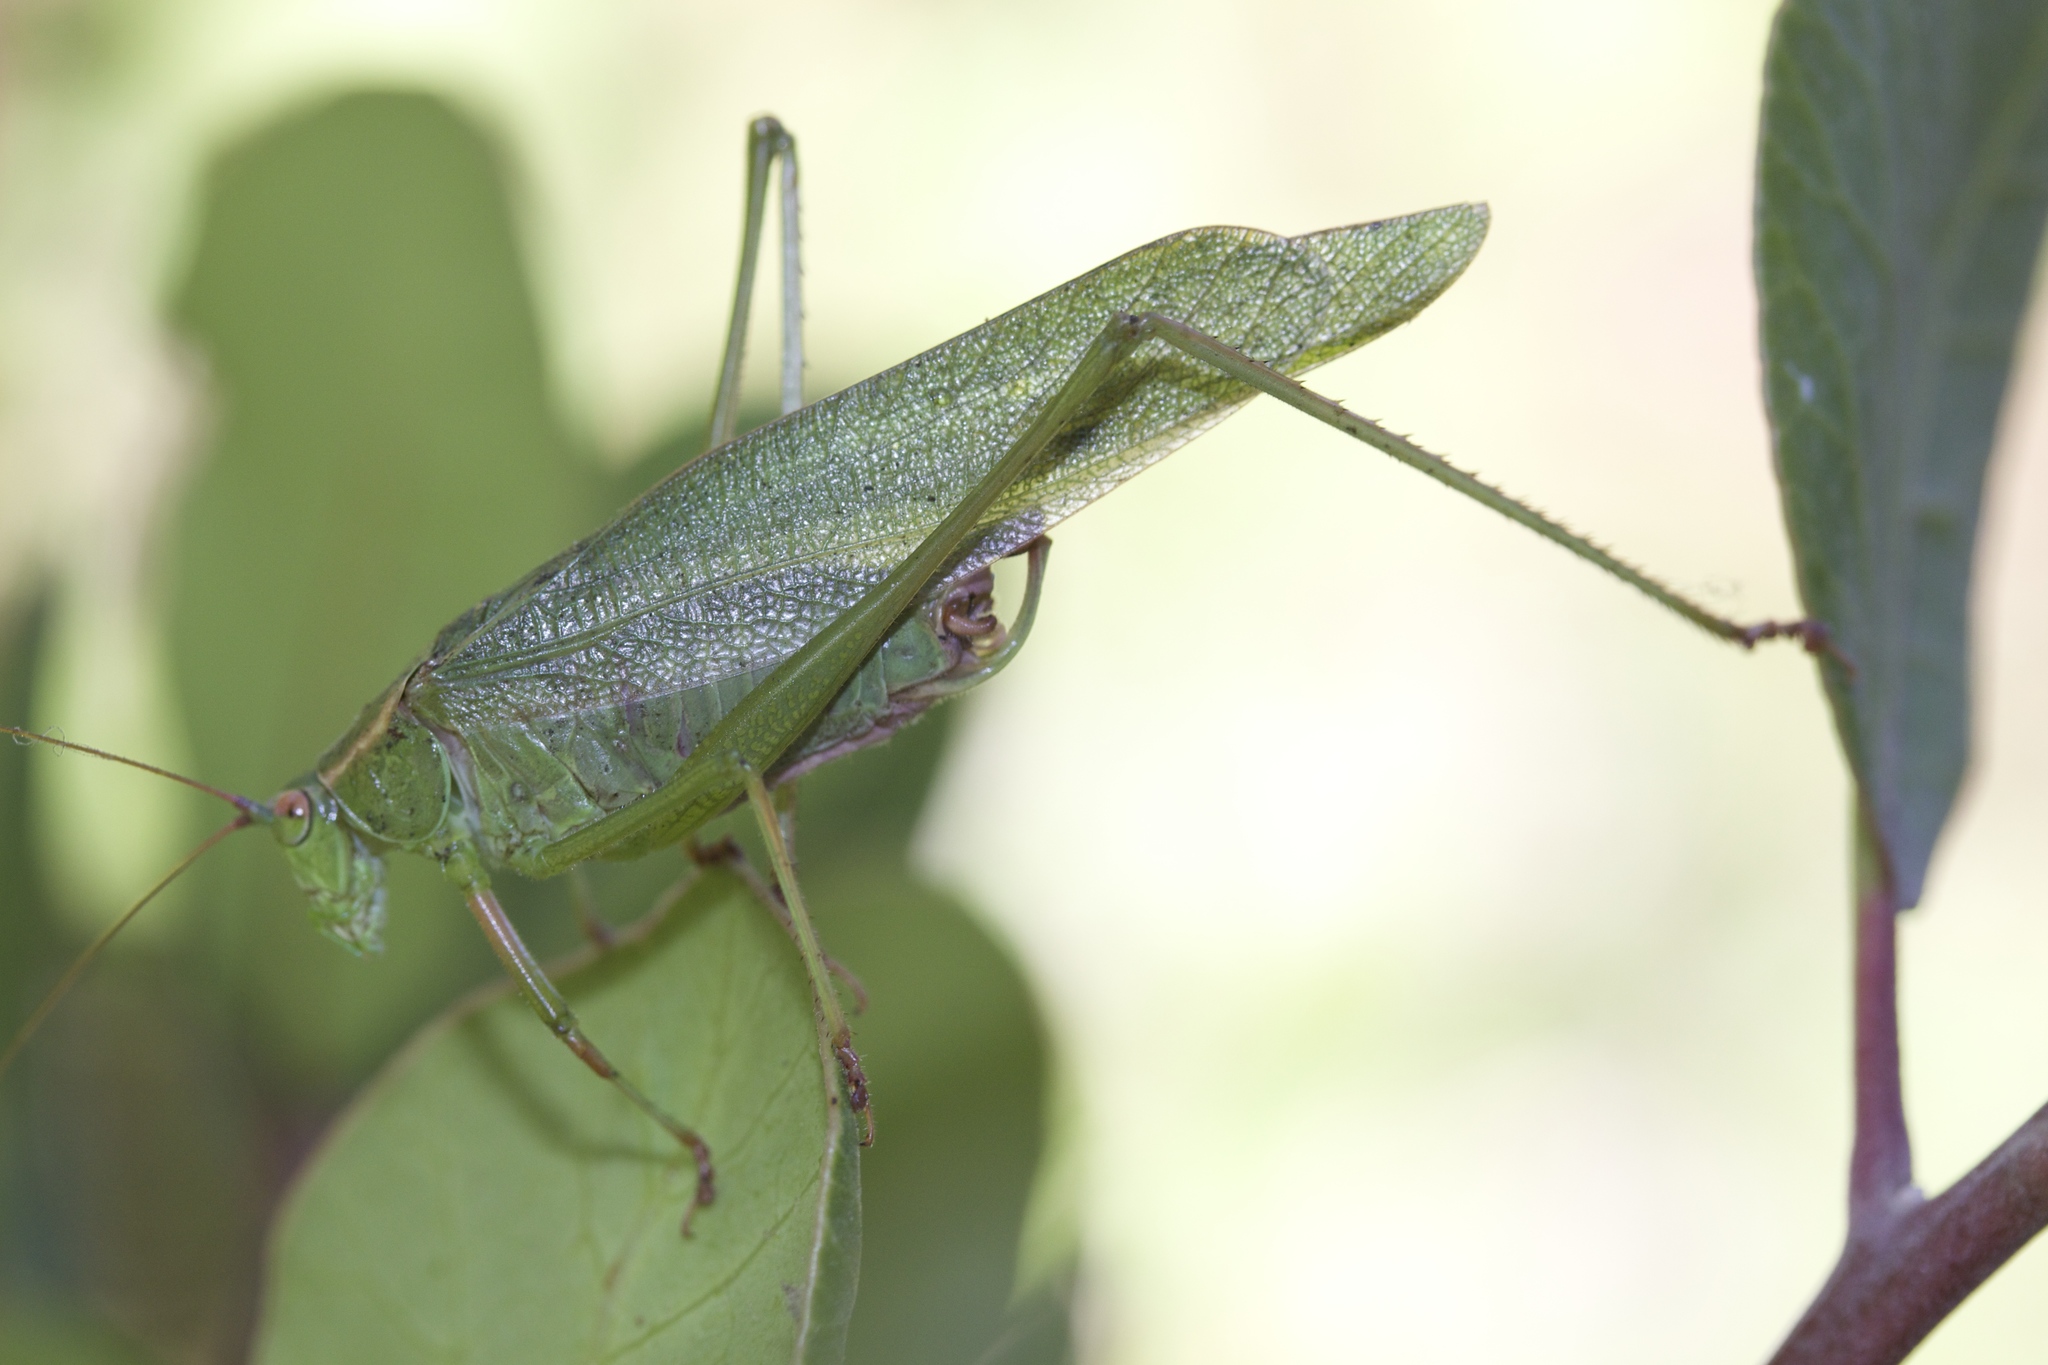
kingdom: Animalia
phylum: Arthropoda
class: Insecta
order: Orthoptera
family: Tettigoniidae
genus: Scudderia
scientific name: Scudderia furcata
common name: Fork-tailed bush katydid
